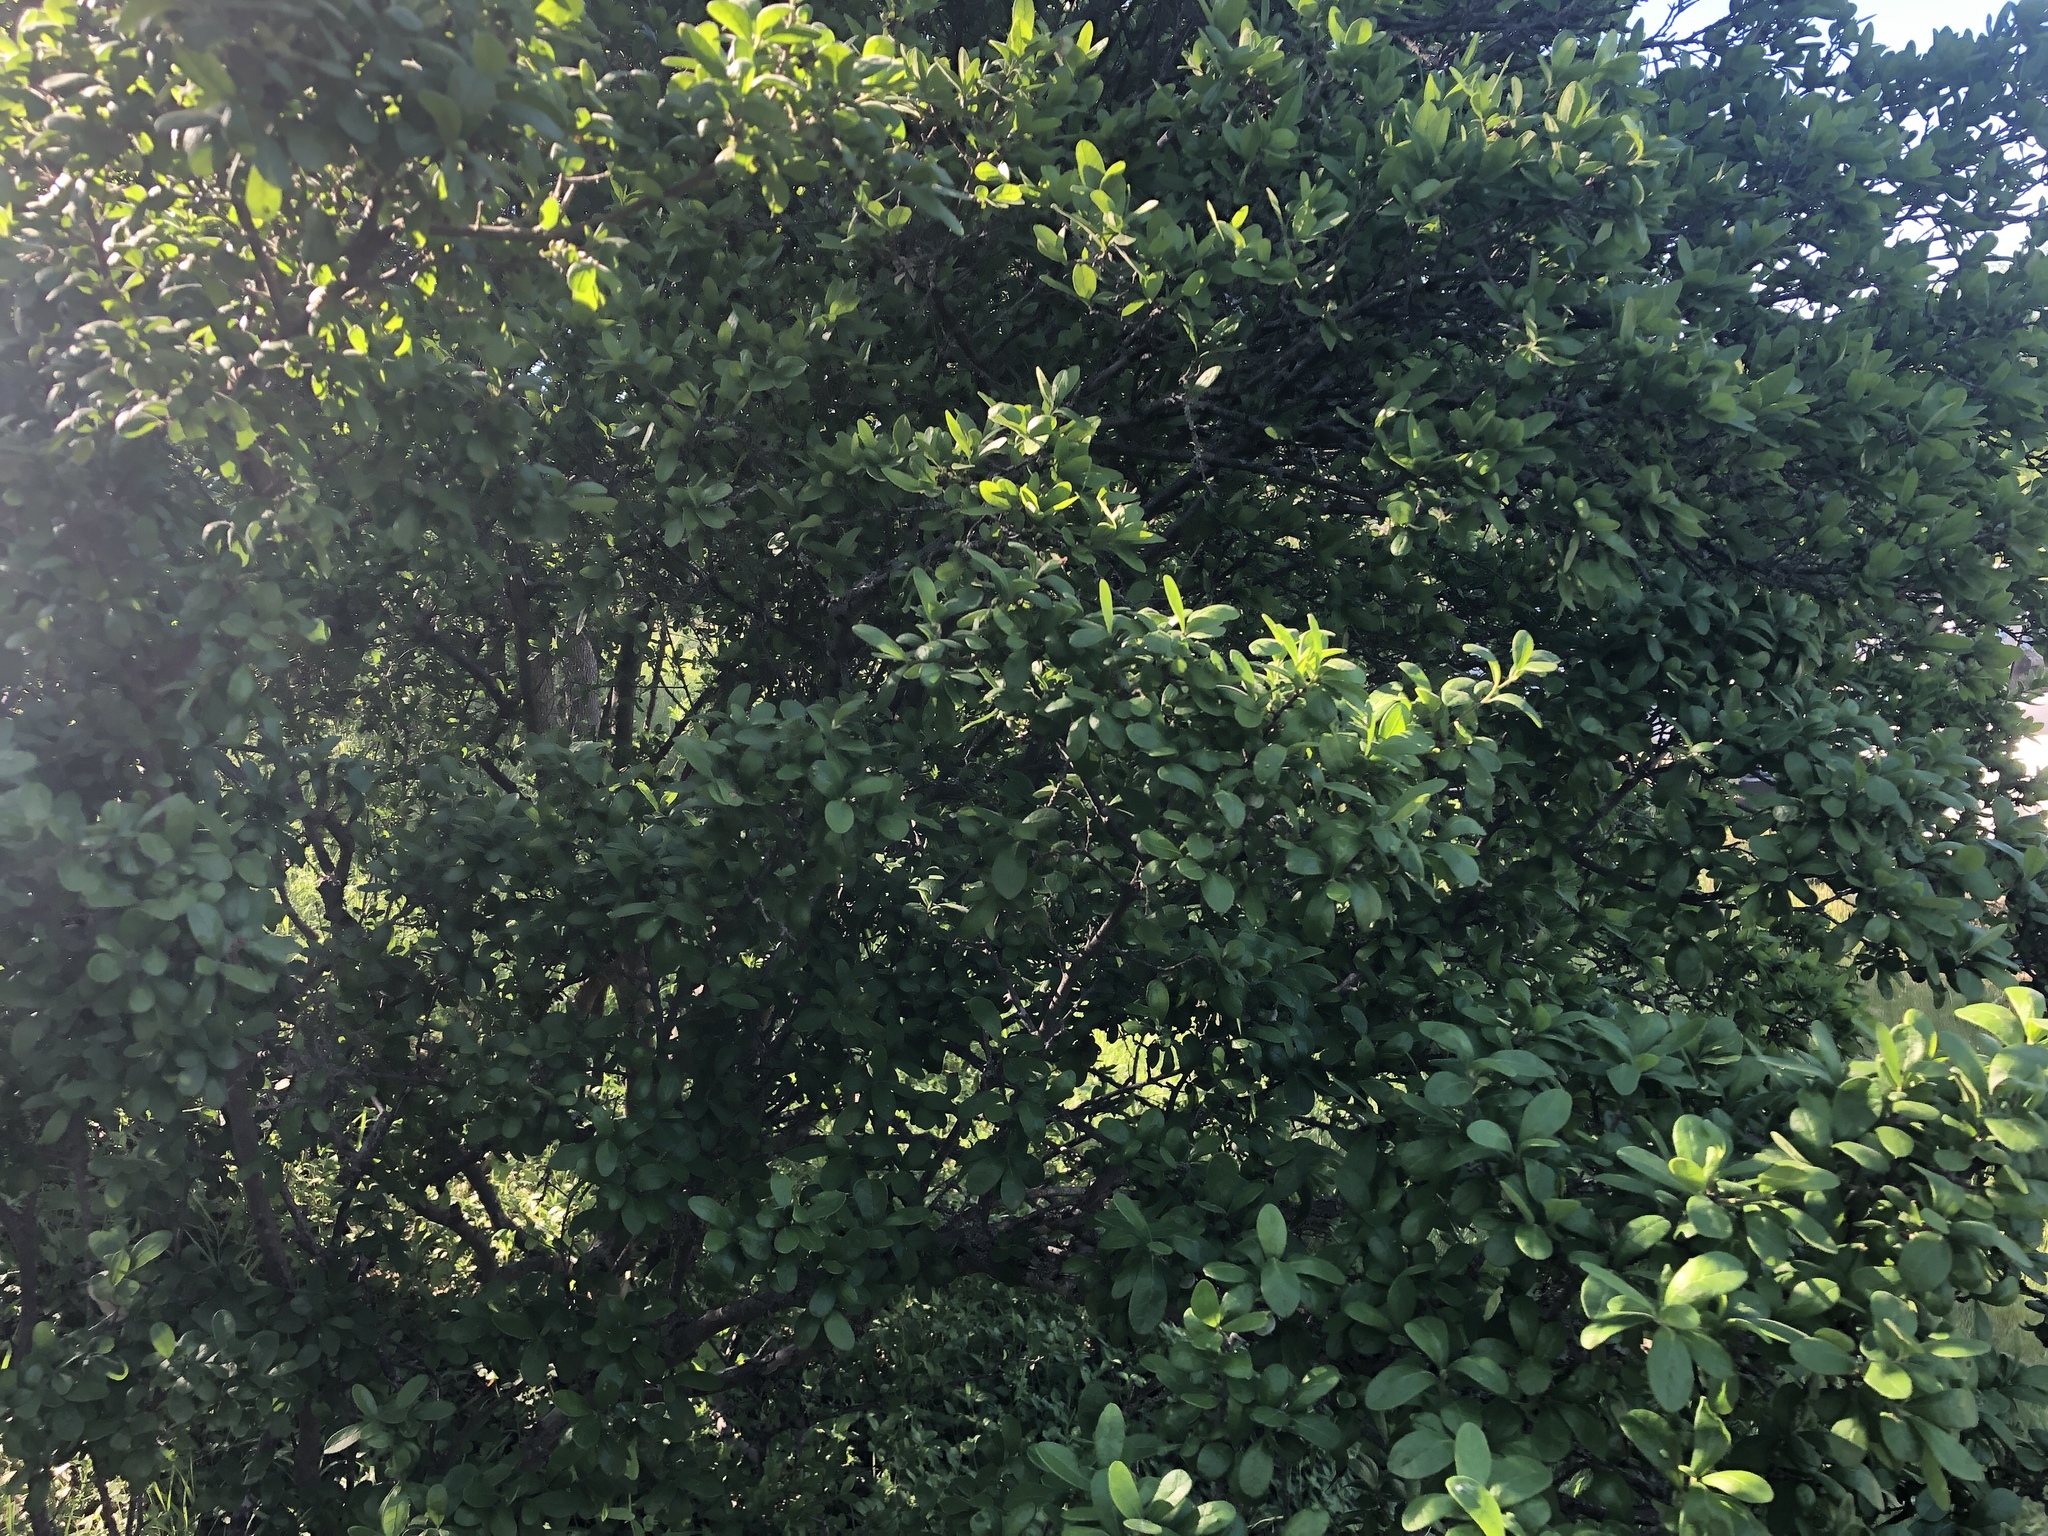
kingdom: Plantae
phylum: Tracheophyta
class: Magnoliopsida
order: Ericales
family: Ebenaceae
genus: Diospyros
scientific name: Diospyros texana
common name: Texas persimmon
